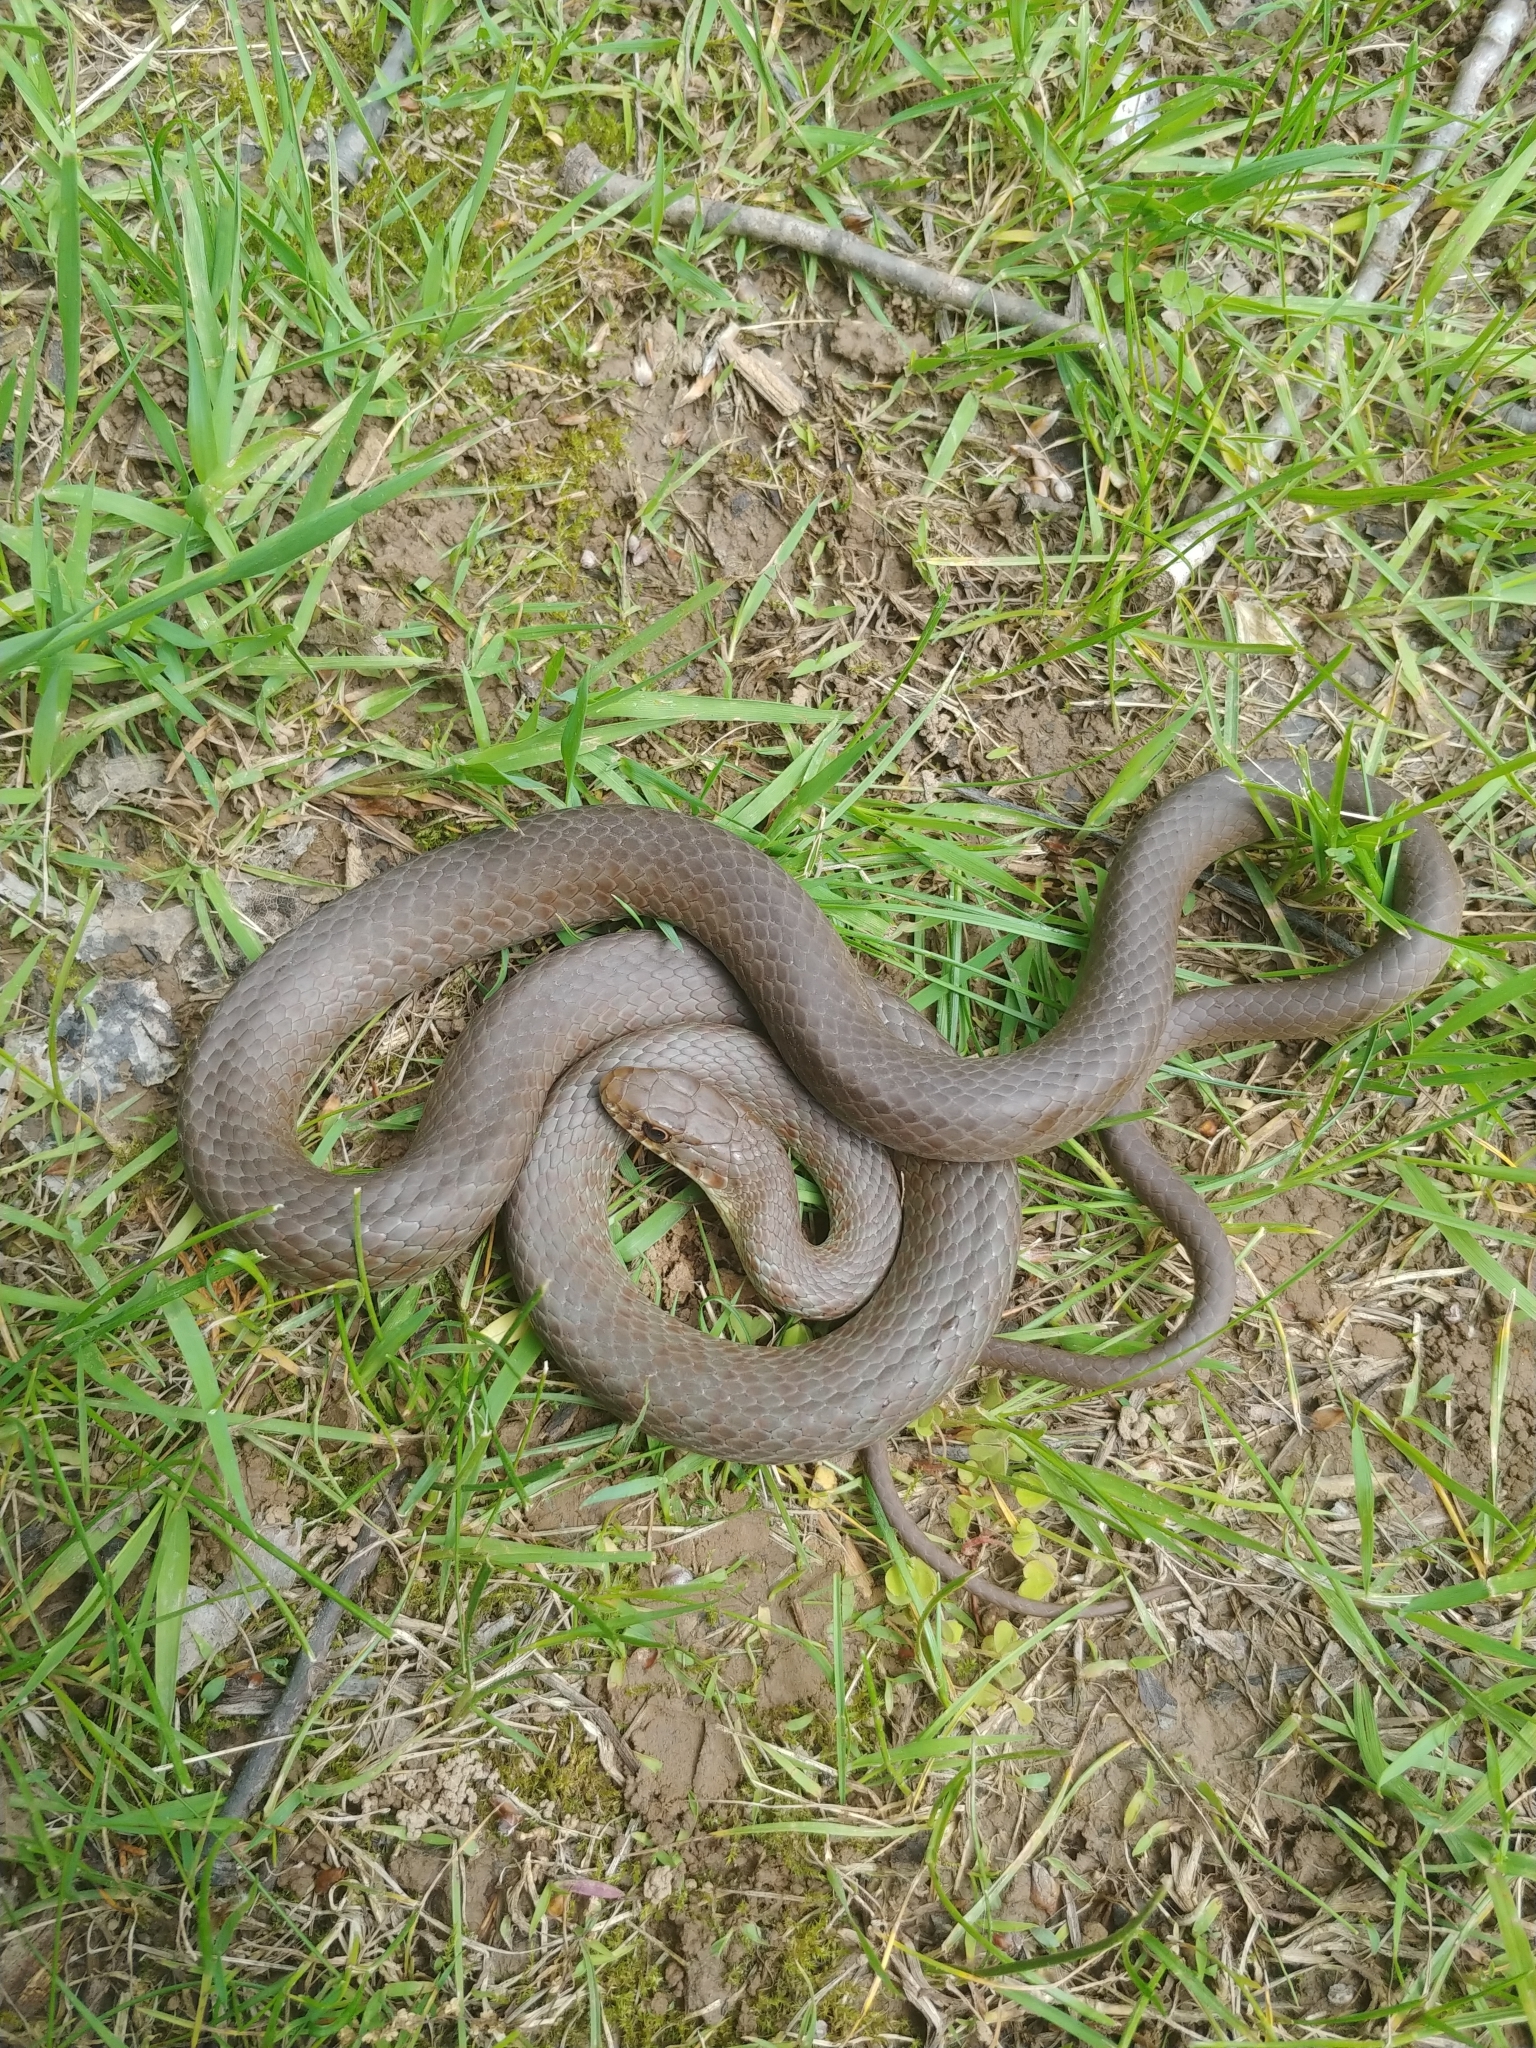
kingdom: Animalia
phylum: Chordata
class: Squamata
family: Colubridae
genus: Coluber
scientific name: Coluber constrictor
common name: Eastern racer
